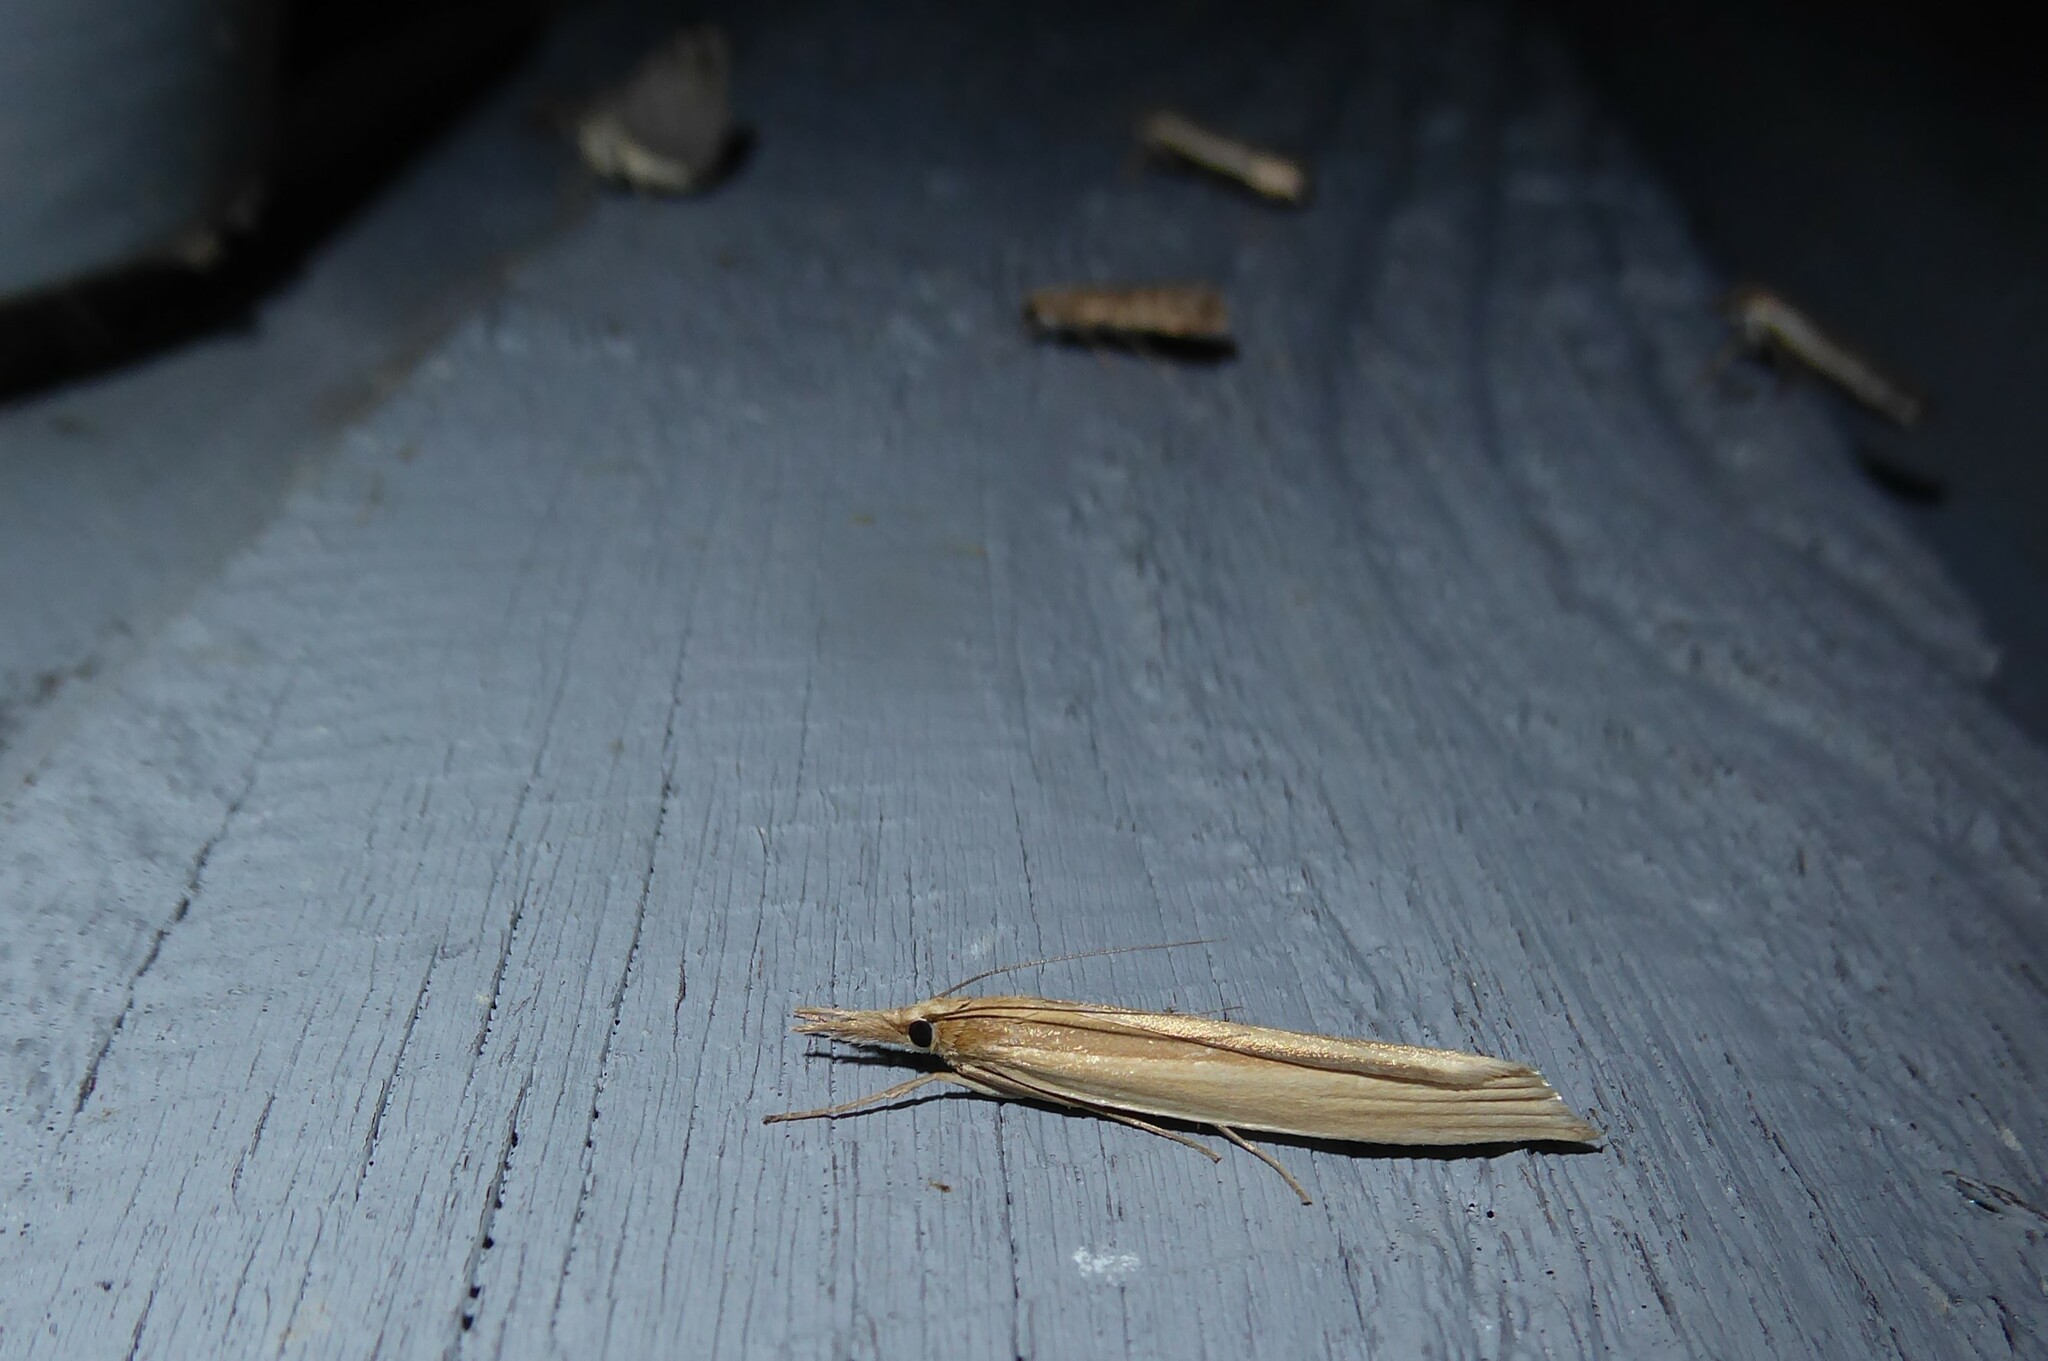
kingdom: Animalia
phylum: Arthropoda
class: Insecta
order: Lepidoptera
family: Crambidae
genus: Orocrambus
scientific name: Orocrambus angustipennis
